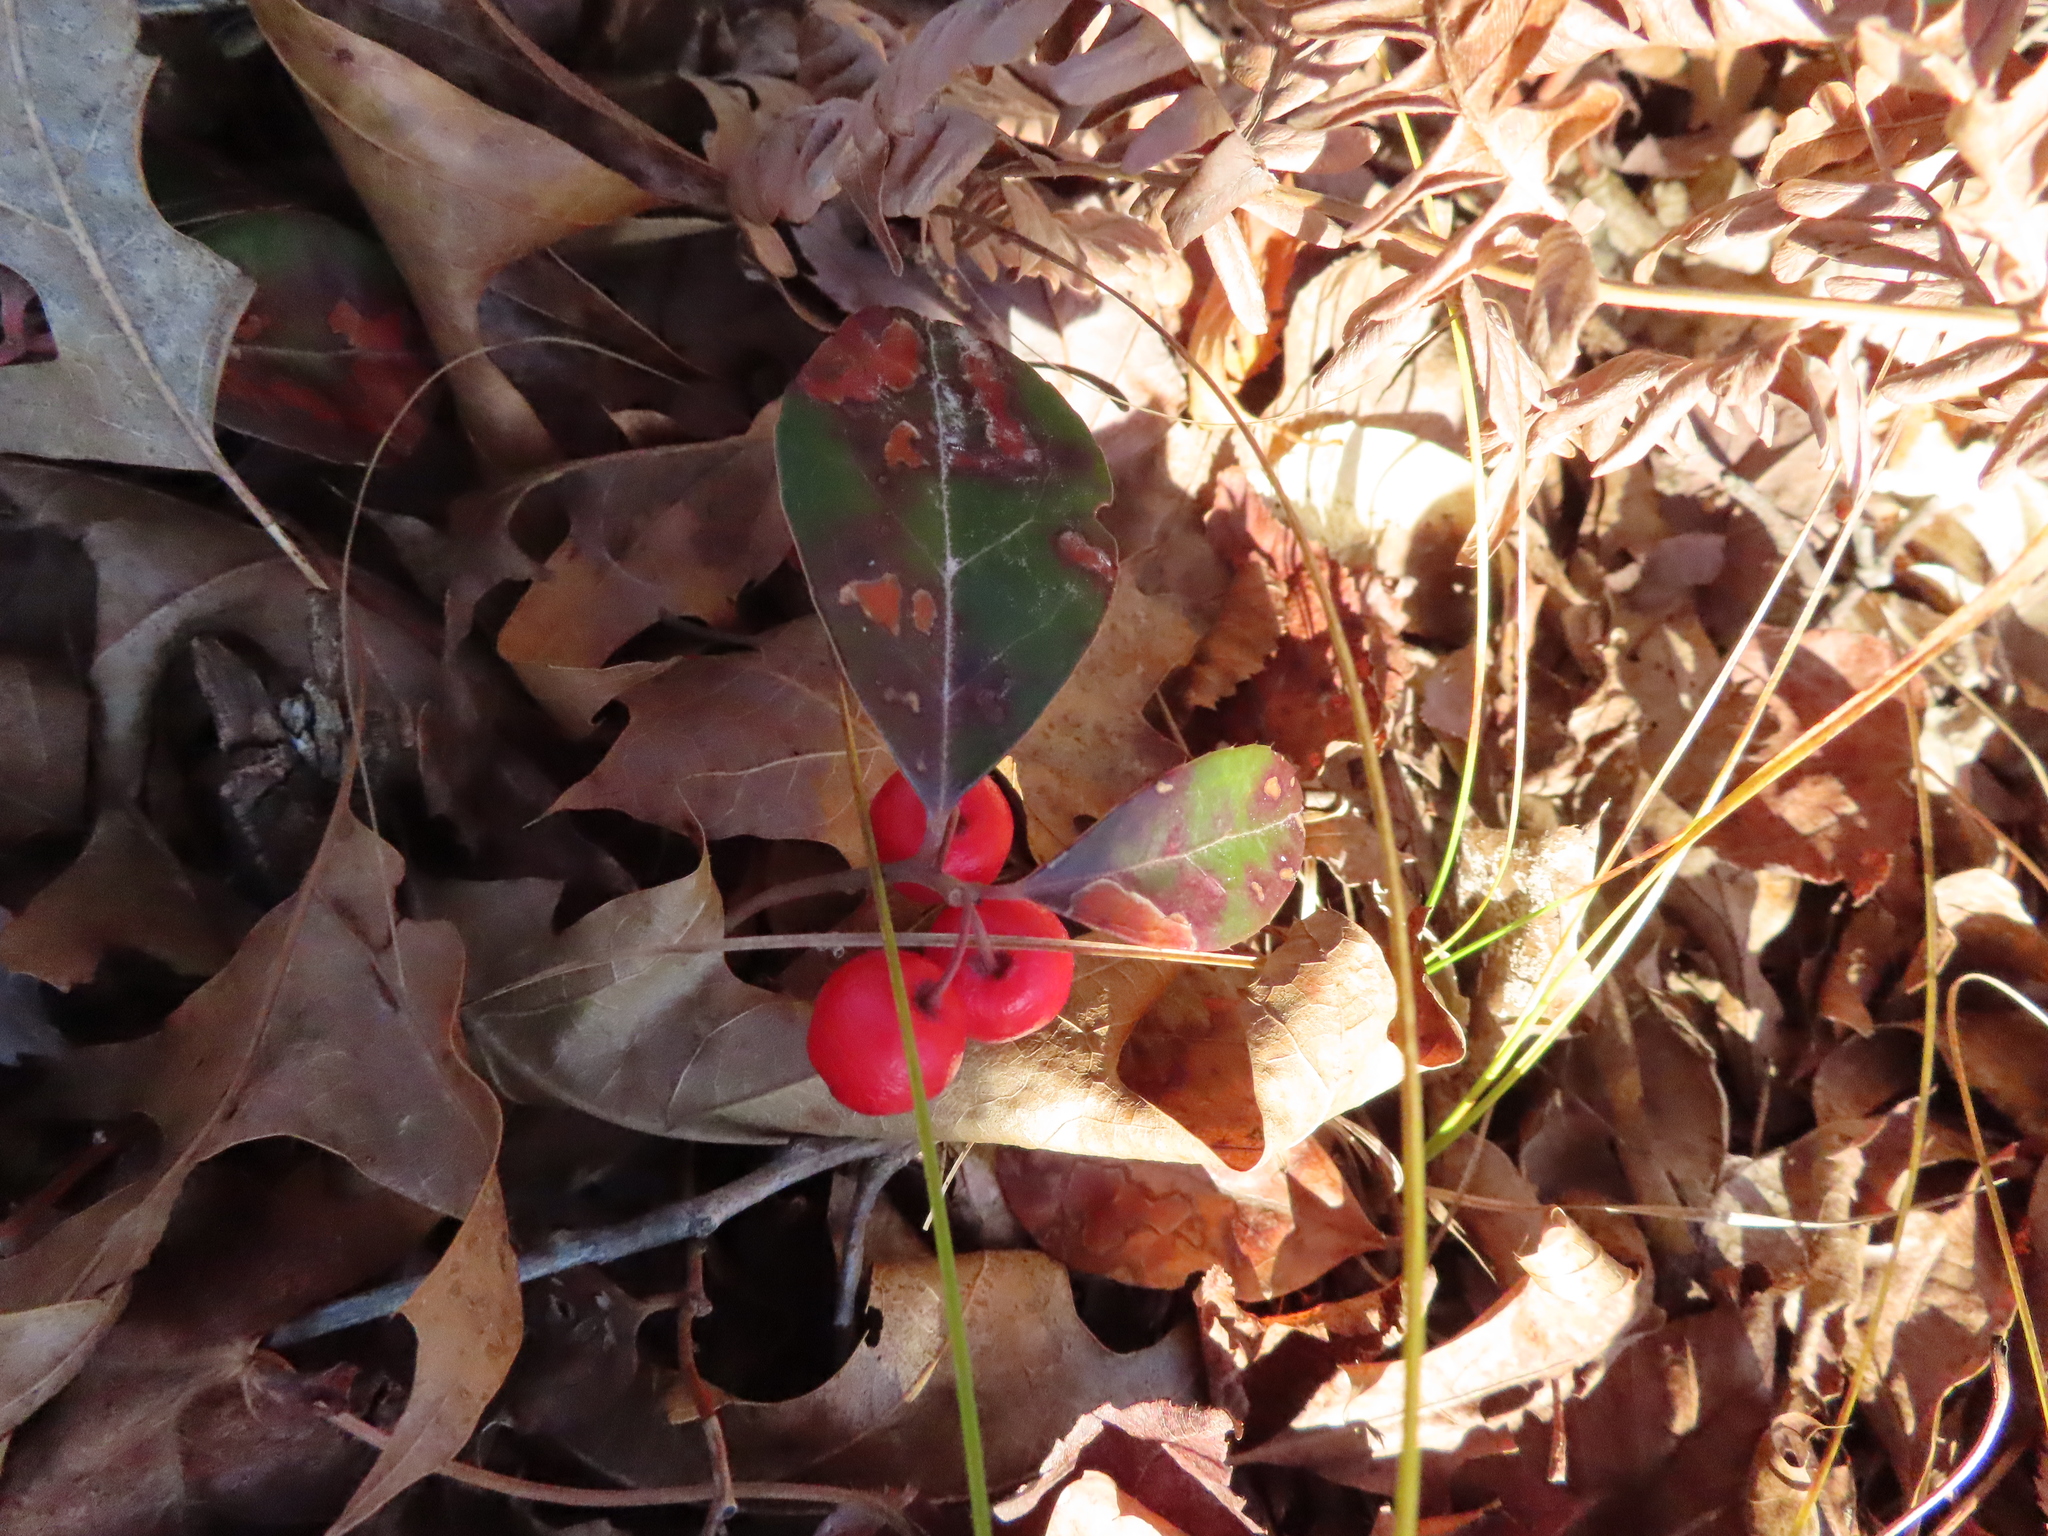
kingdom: Plantae
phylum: Tracheophyta
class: Magnoliopsida
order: Ericales
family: Ericaceae
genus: Gaultheria
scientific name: Gaultheria procumbens
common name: Checkerberry
